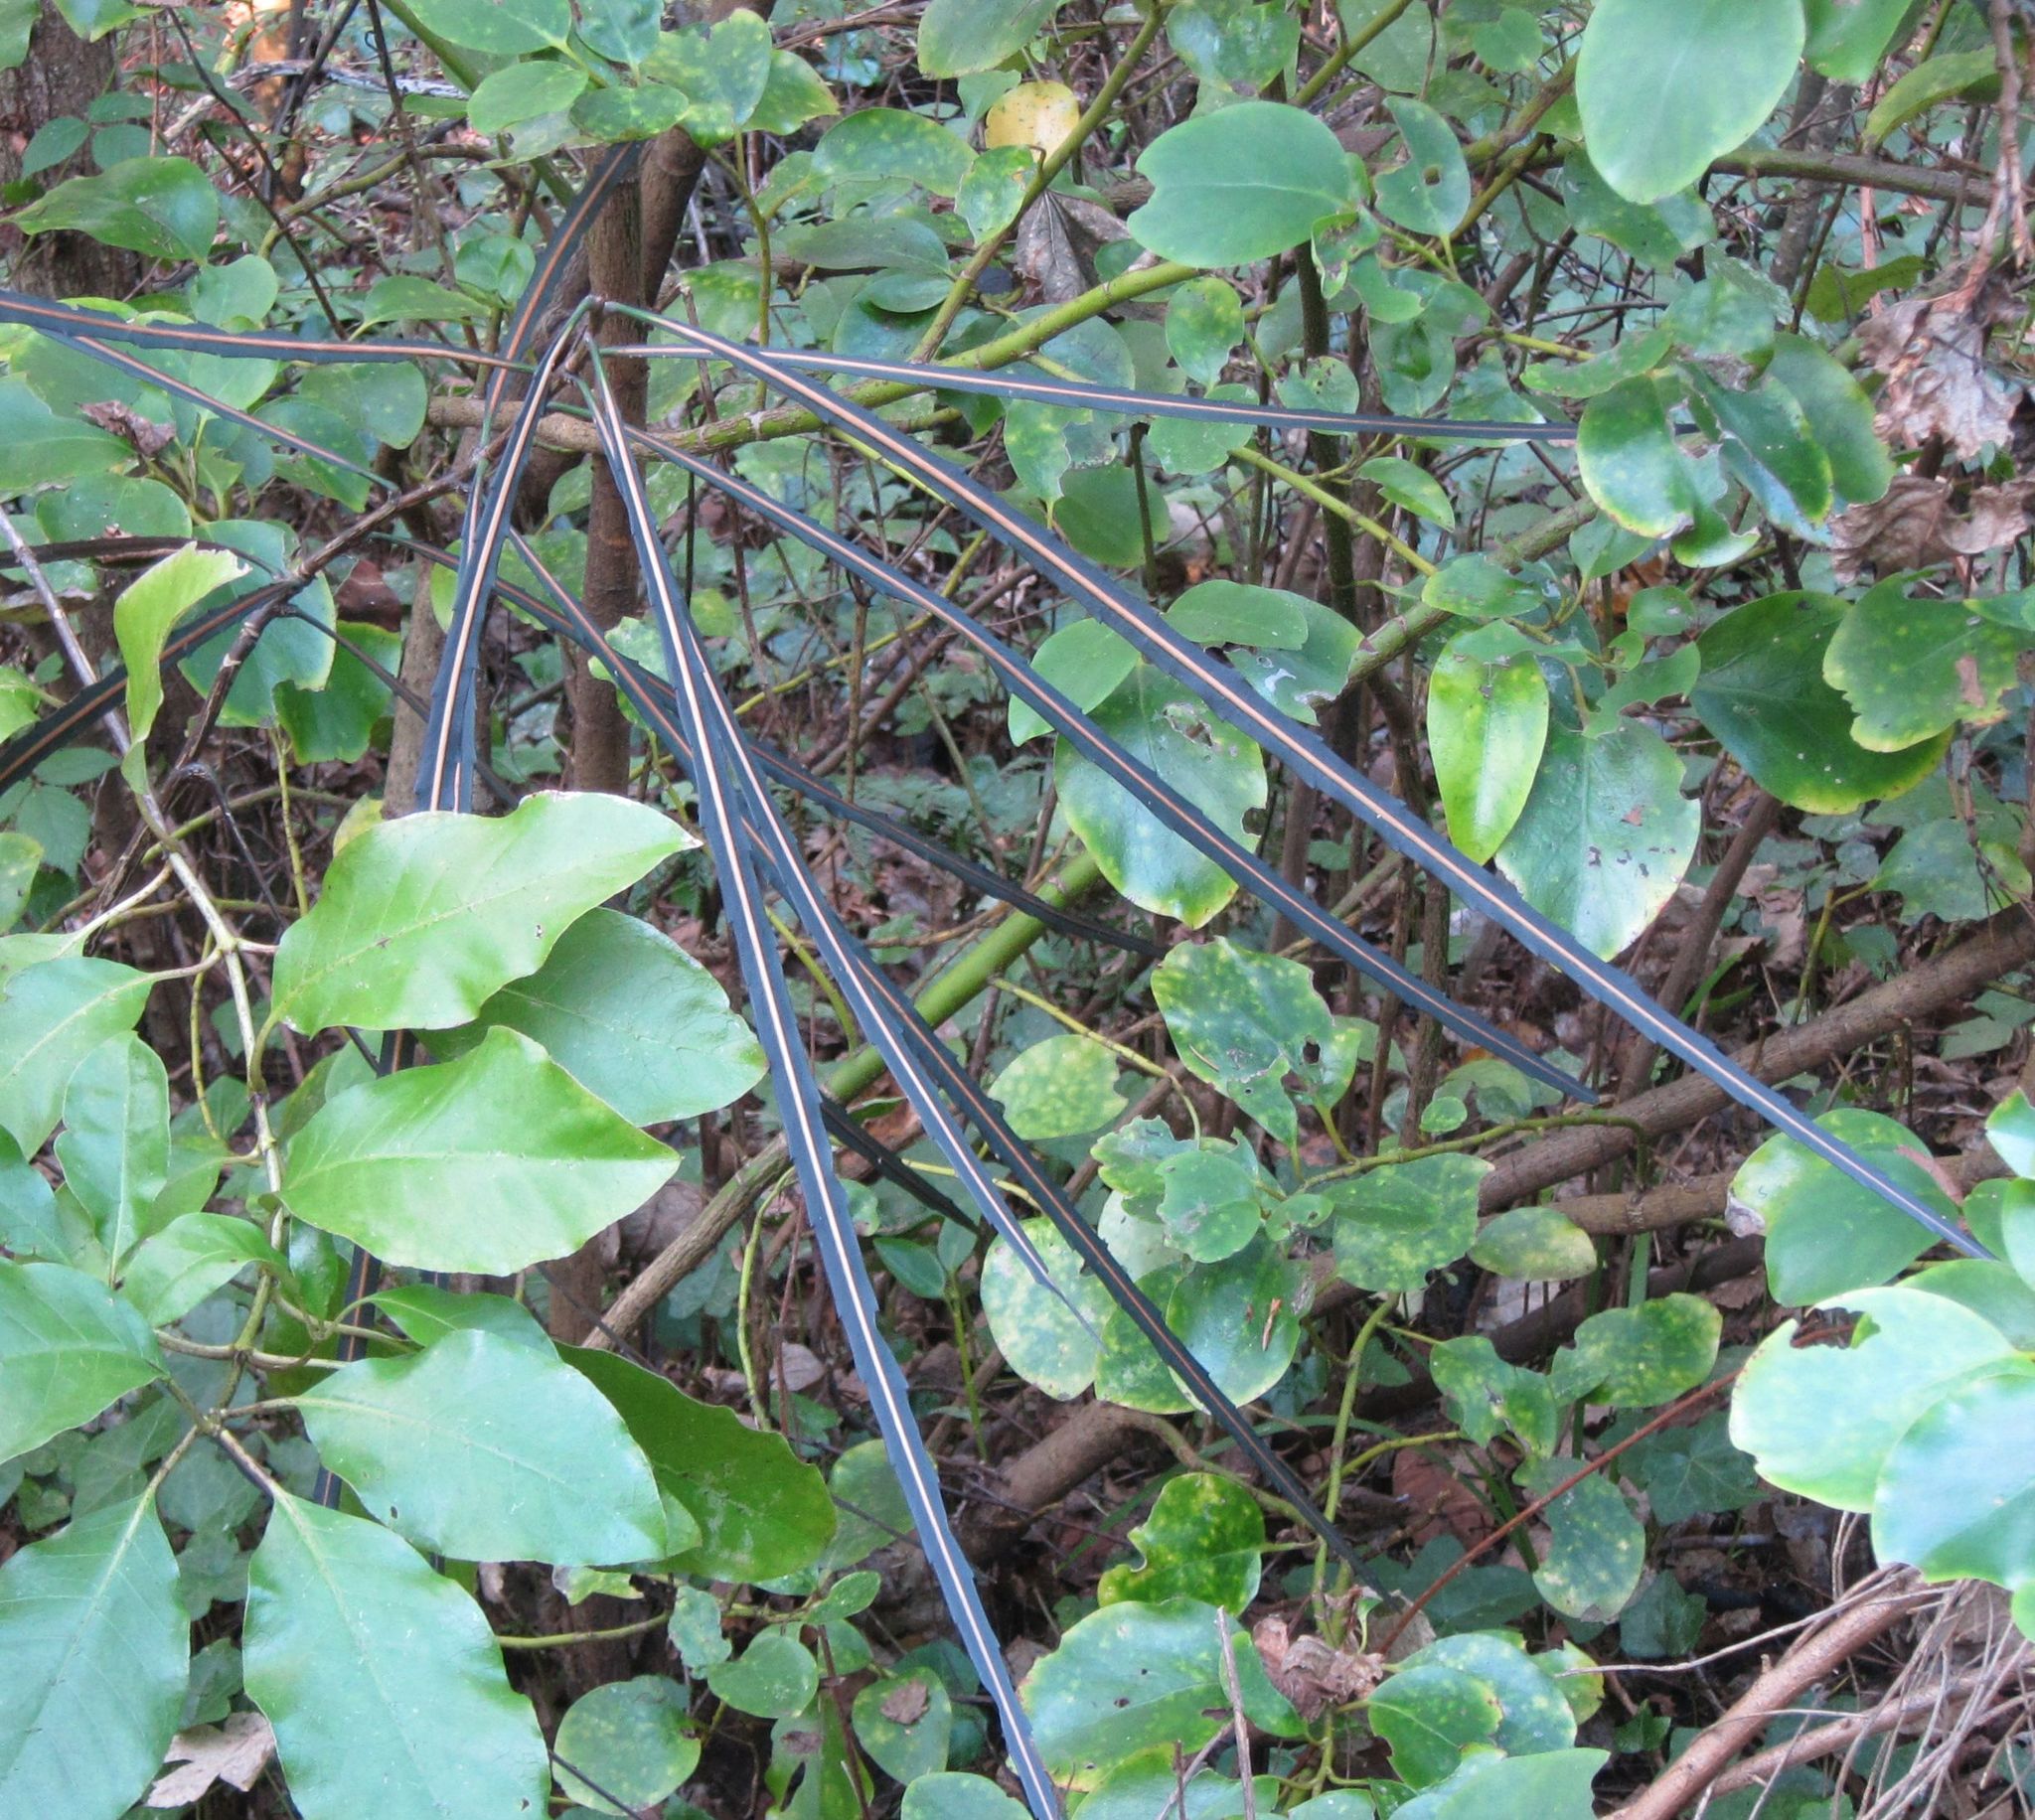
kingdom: Plantae
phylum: Tracheophyta
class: Magnoliopsida
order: Apiales
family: Araliaceae
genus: Pseudopanax
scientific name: Pseudopanax crassifolius
